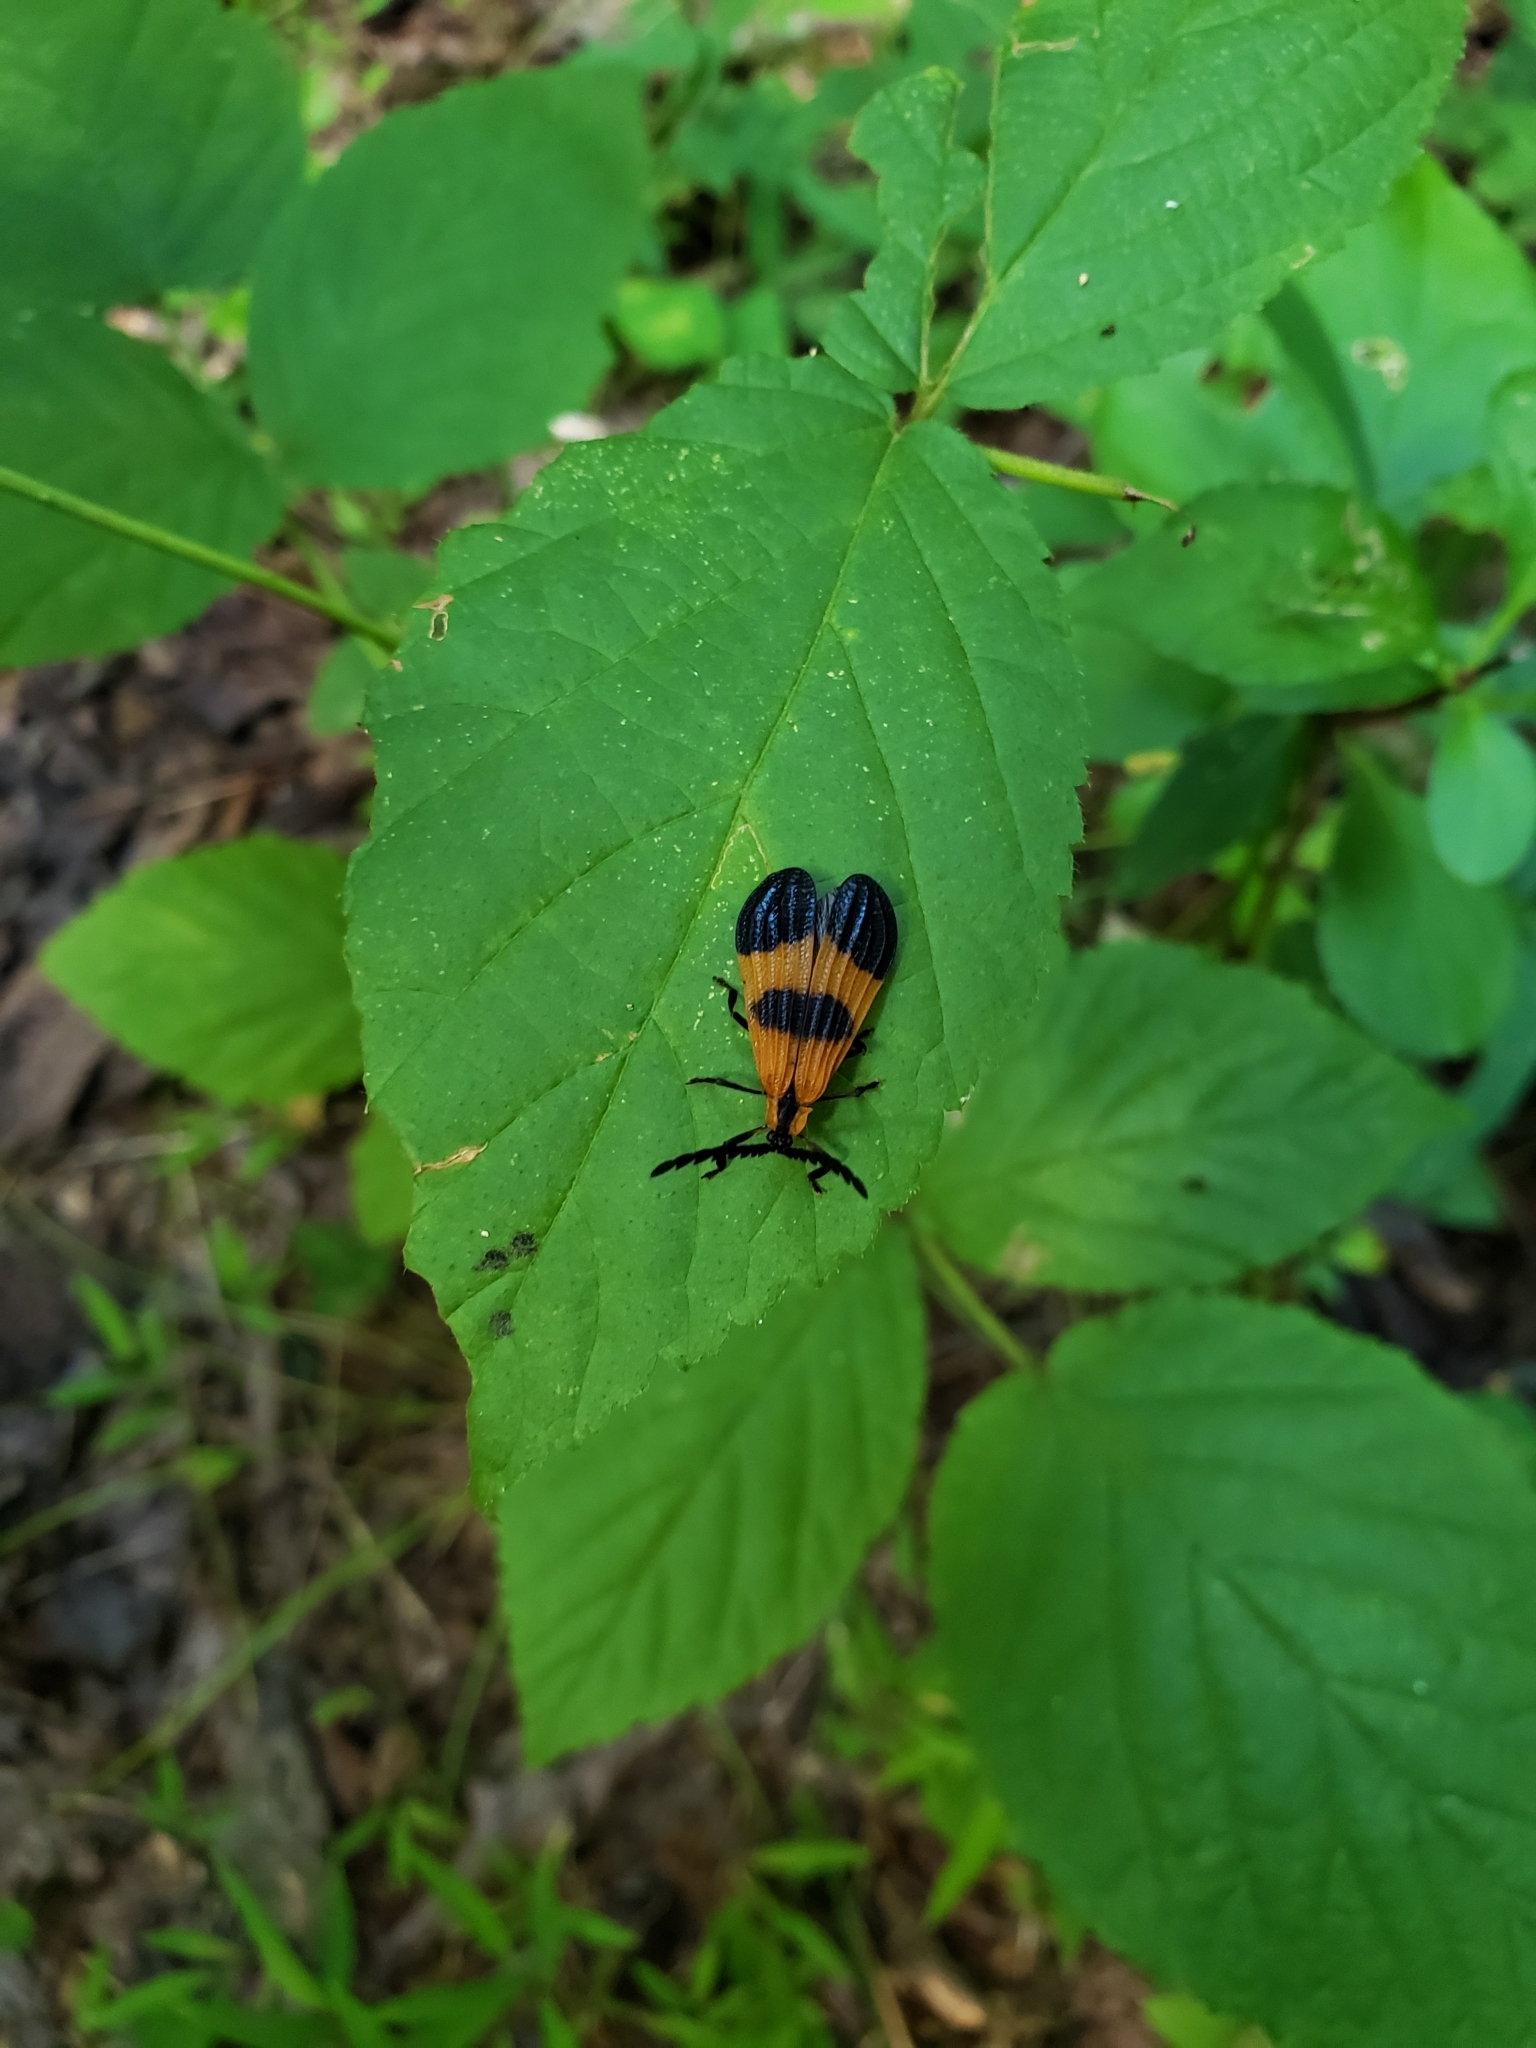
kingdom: Animalia
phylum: Arthropoda
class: Insecta
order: Coleoptera
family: Lycidae
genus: Calopteron
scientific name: Calopteron terminale
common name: End band net-winged beetle
